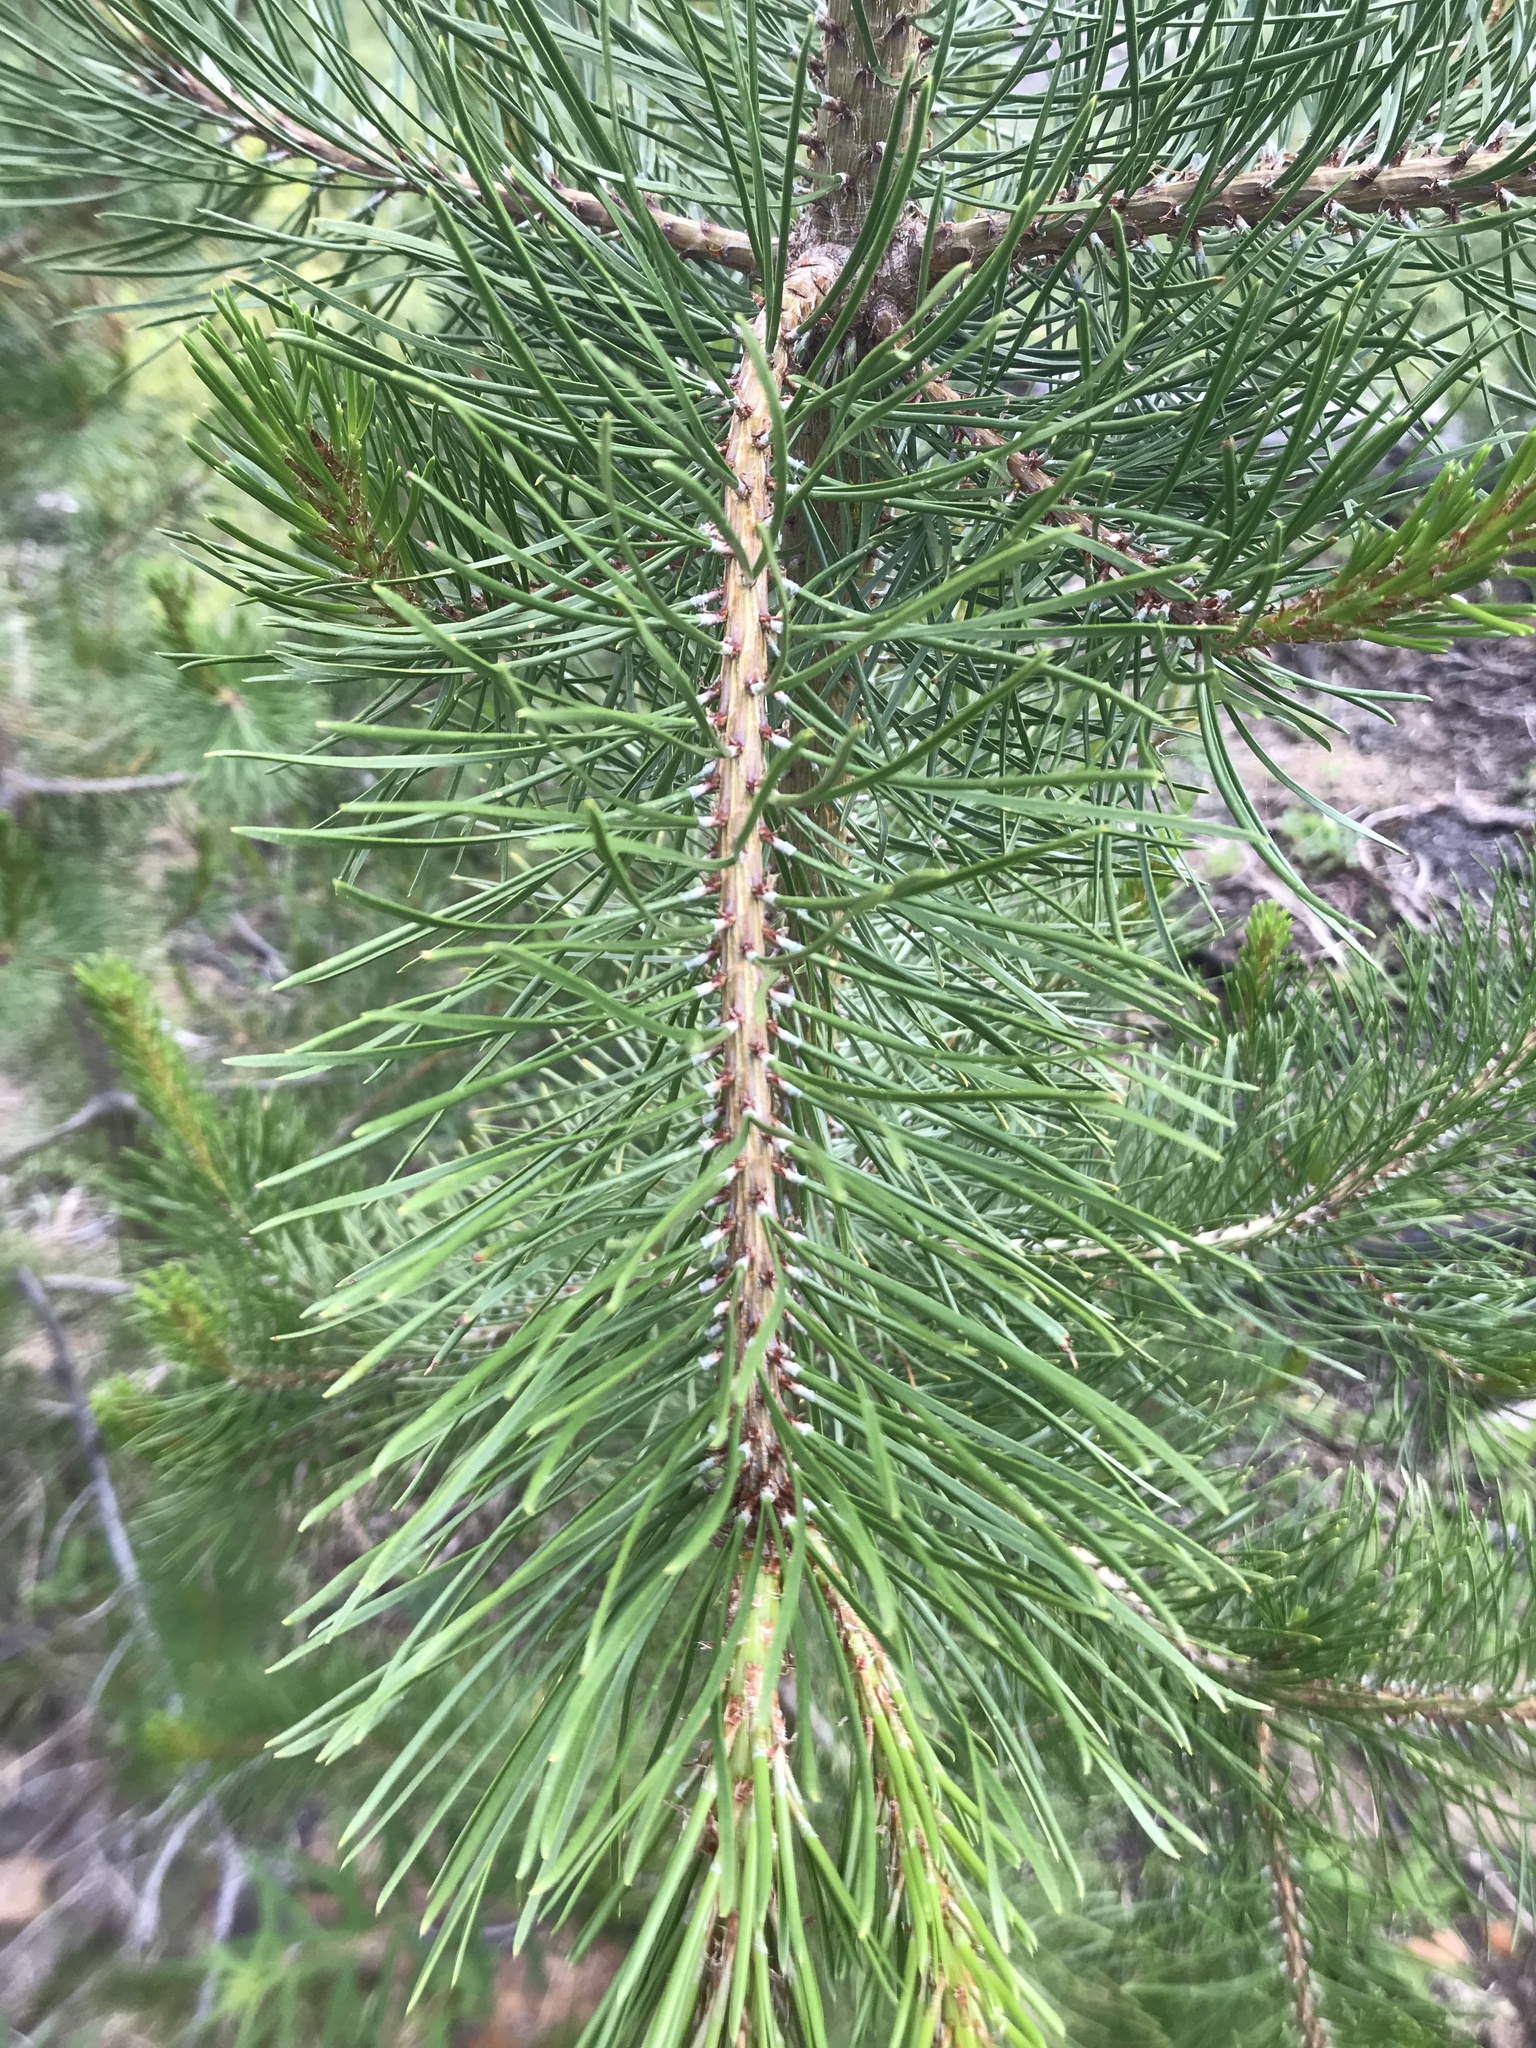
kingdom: Plantae
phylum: Tracheophyta
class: Pinopsida
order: Pinales
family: Pinaceae
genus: Pinus
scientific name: Pinus contorta
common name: Lodgepole pine
